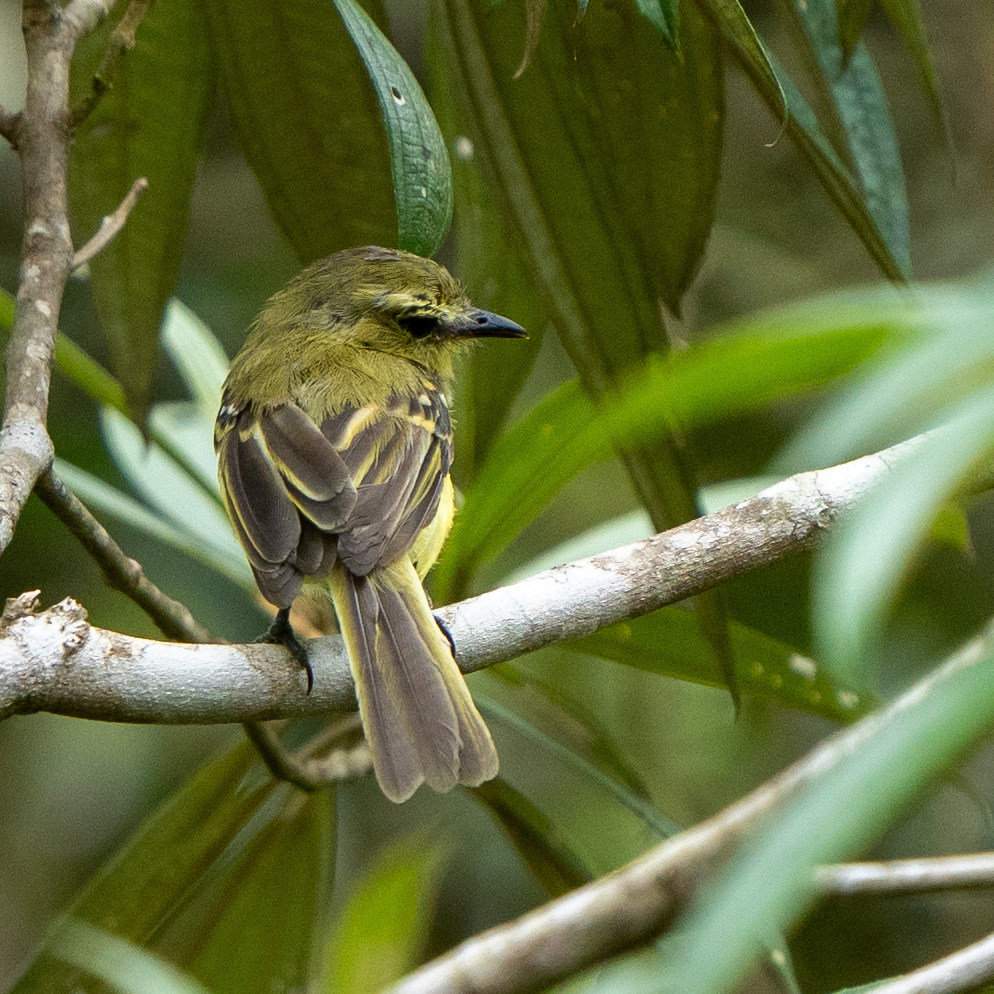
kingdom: Animalia
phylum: Chordata
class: Aves
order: Passeriformes
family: Tyrannidae
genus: Capsiempis
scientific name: Capsiempis flaveola
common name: Yellow tyrannulet
